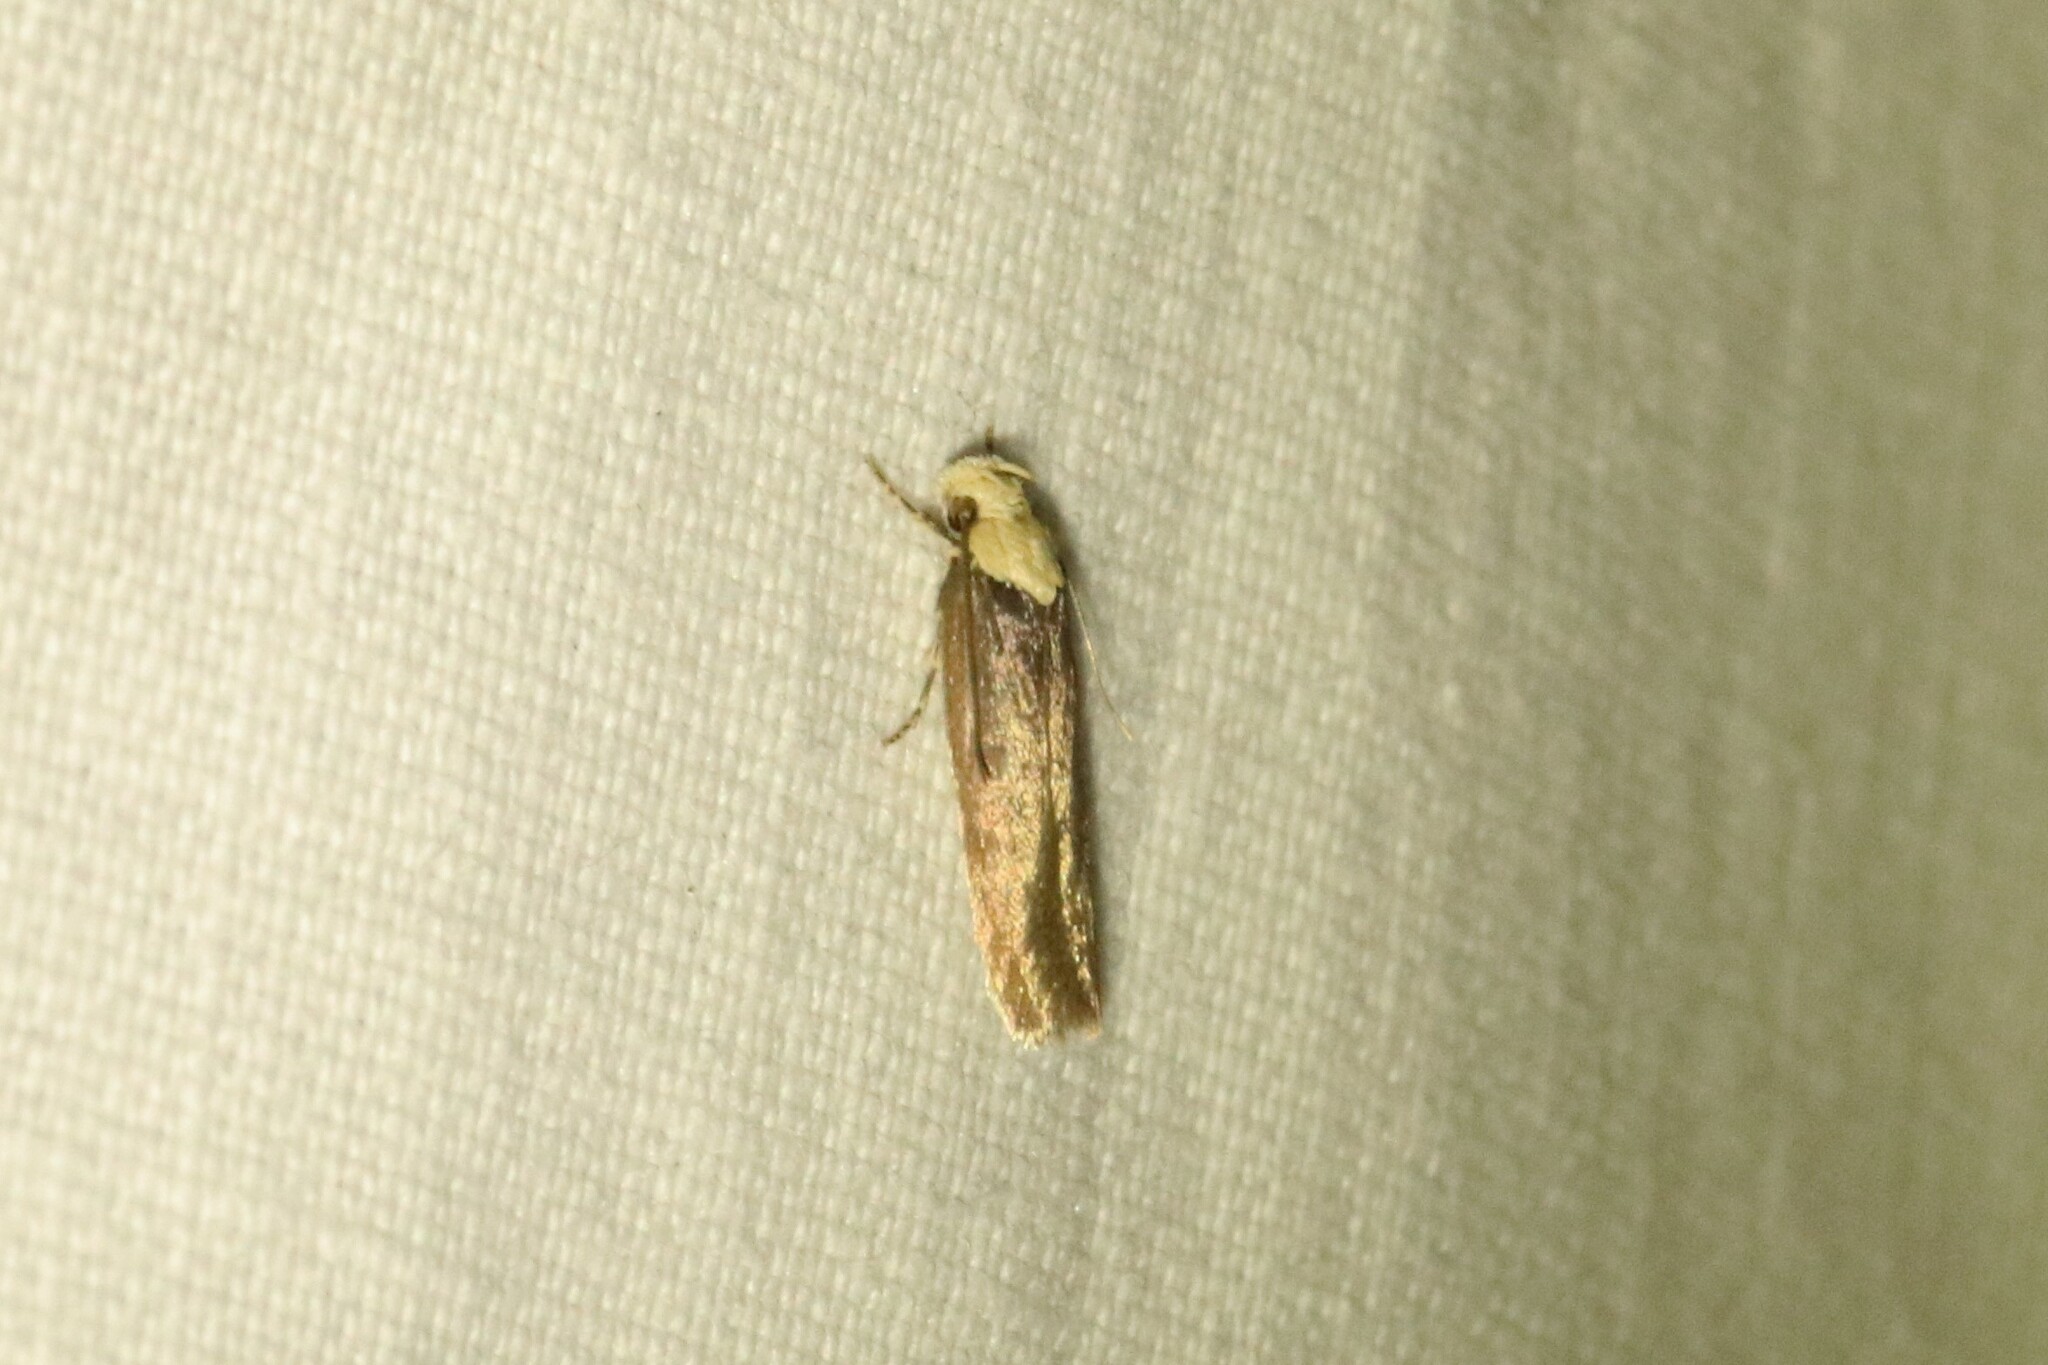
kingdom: Animalia
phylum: Arthropoda
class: Insecta
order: Lepidoptera
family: Depressariidae
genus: Depressaria
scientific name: Depressaria depressana
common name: Lost flat-body
